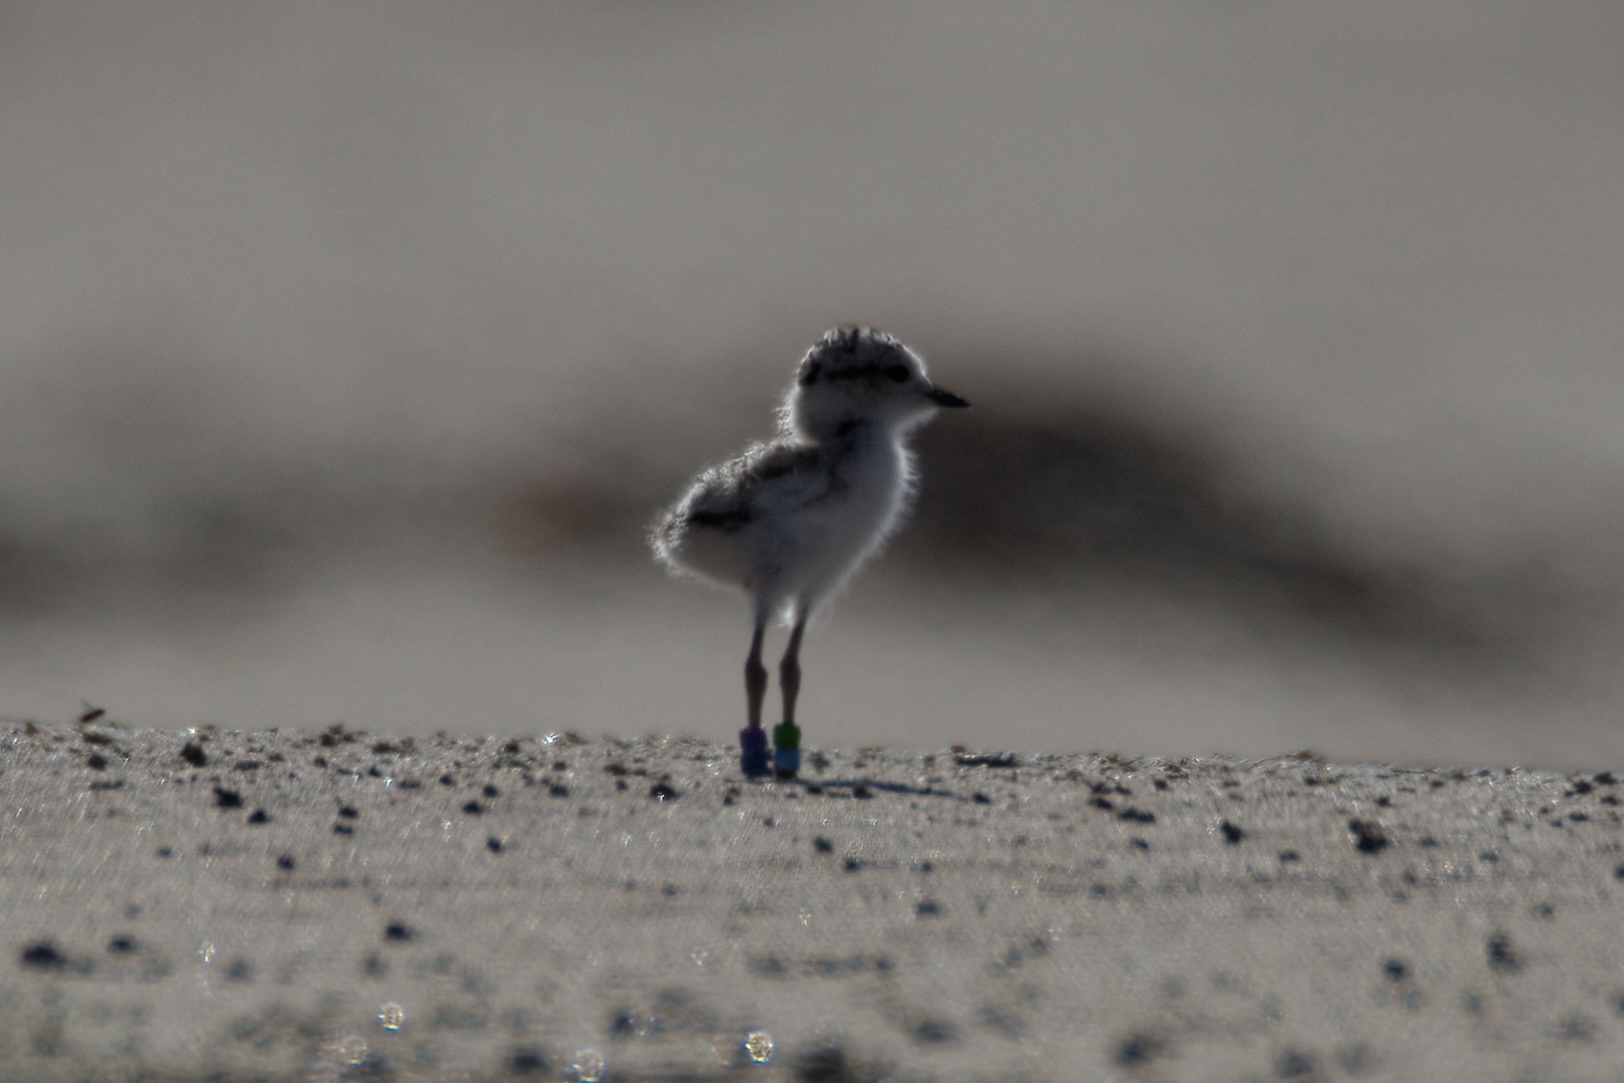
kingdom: Animalia
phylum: Chordata
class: Aves
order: Charadriiformes
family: Charadriidae
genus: Anarhynchus
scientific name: Anarhynchus
